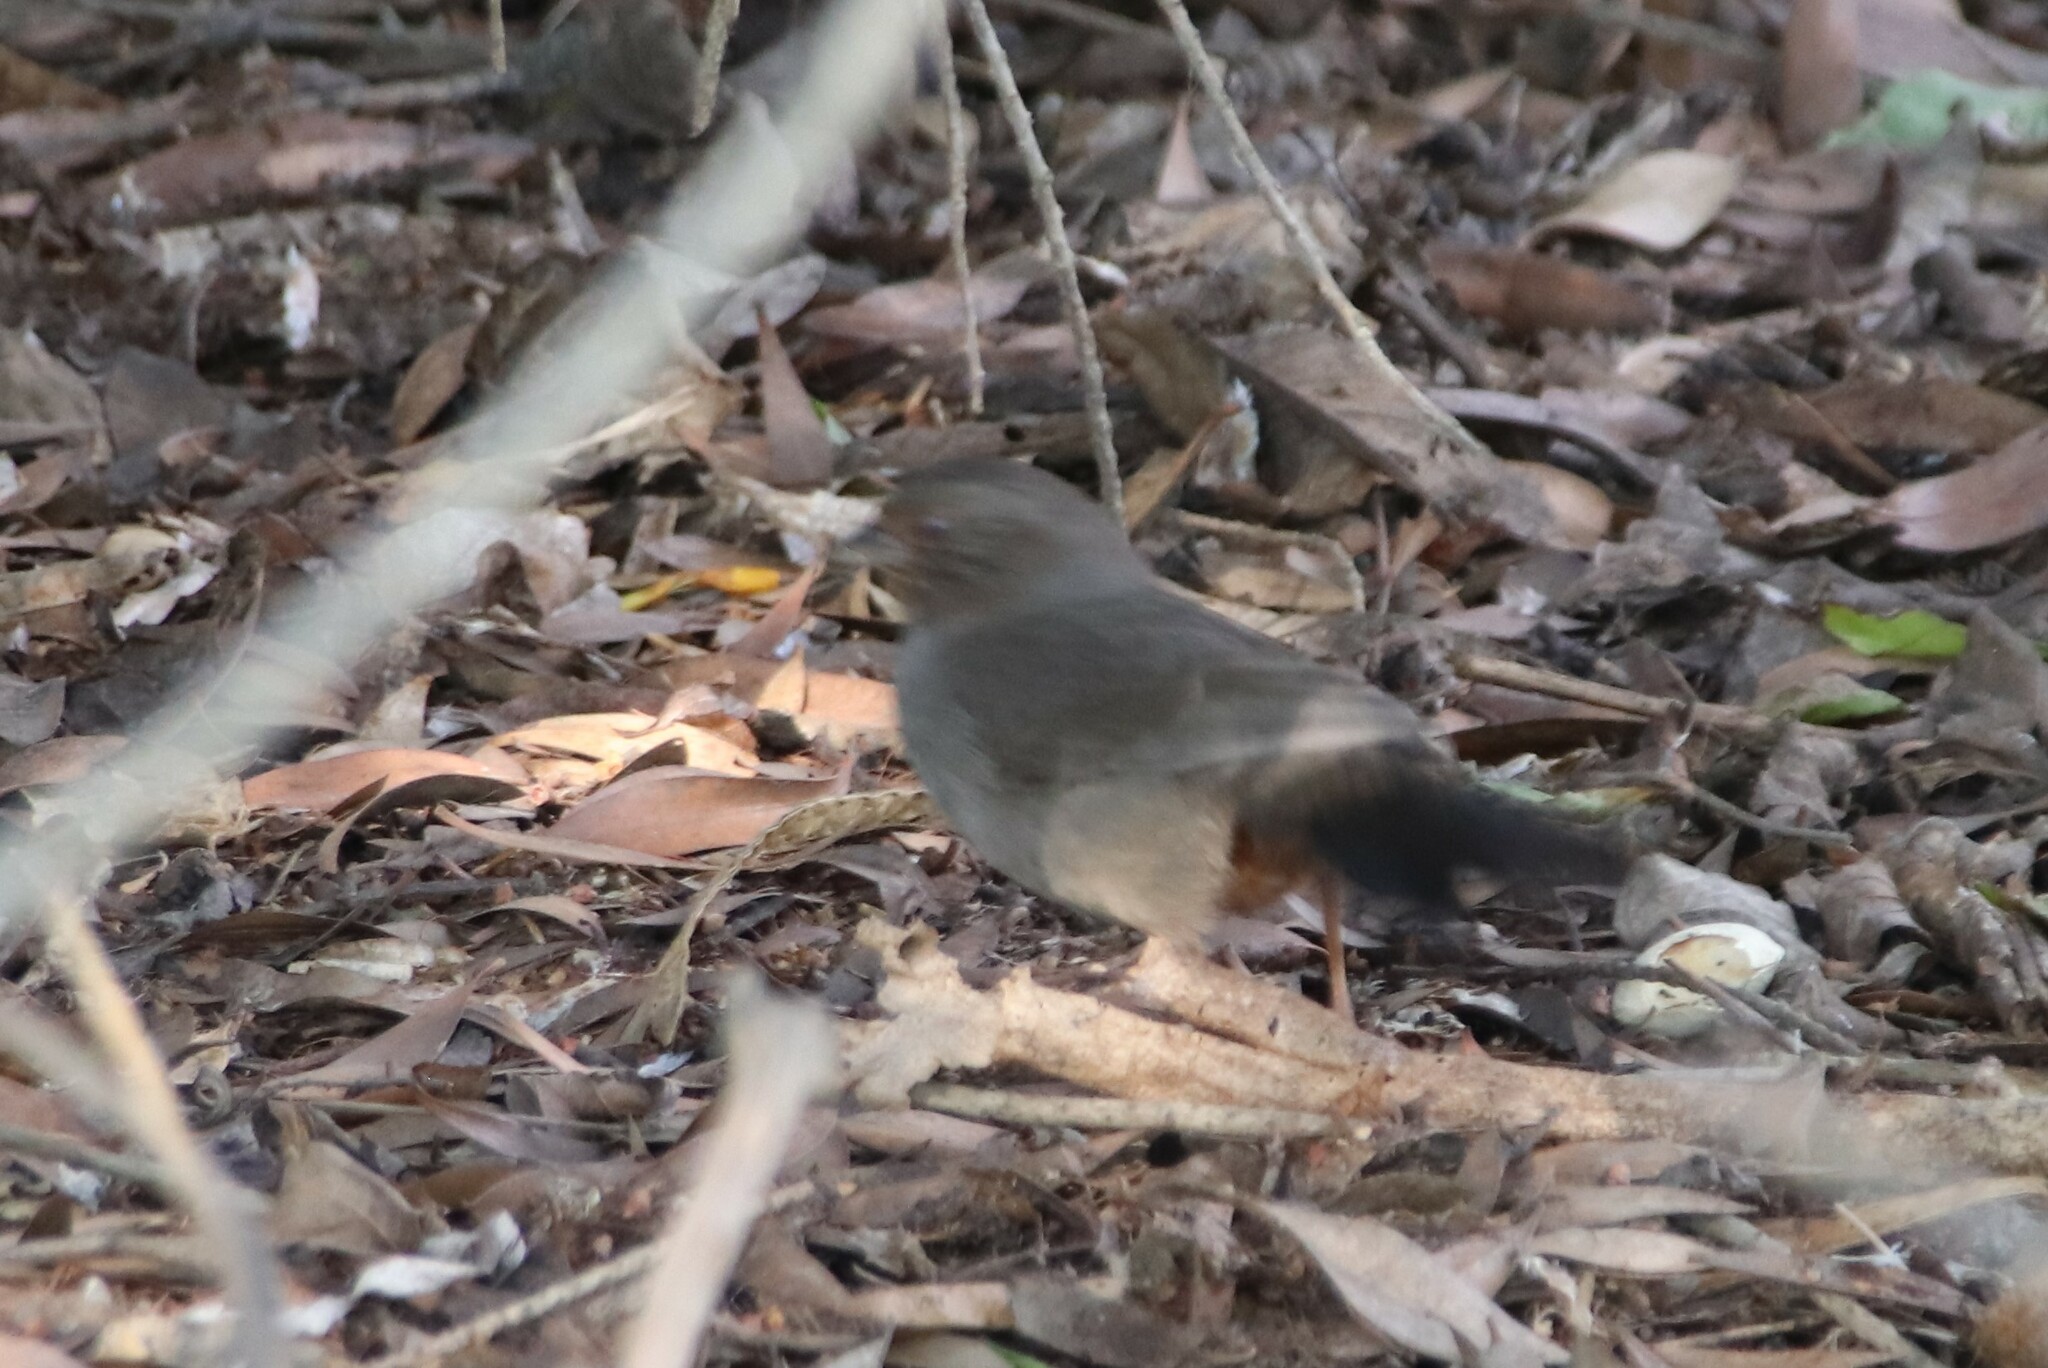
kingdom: Animalia
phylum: Chordata
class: Aves
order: Passeriformes
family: Passerellidae
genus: Melozone
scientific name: Melozone crissalis
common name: California towhee
